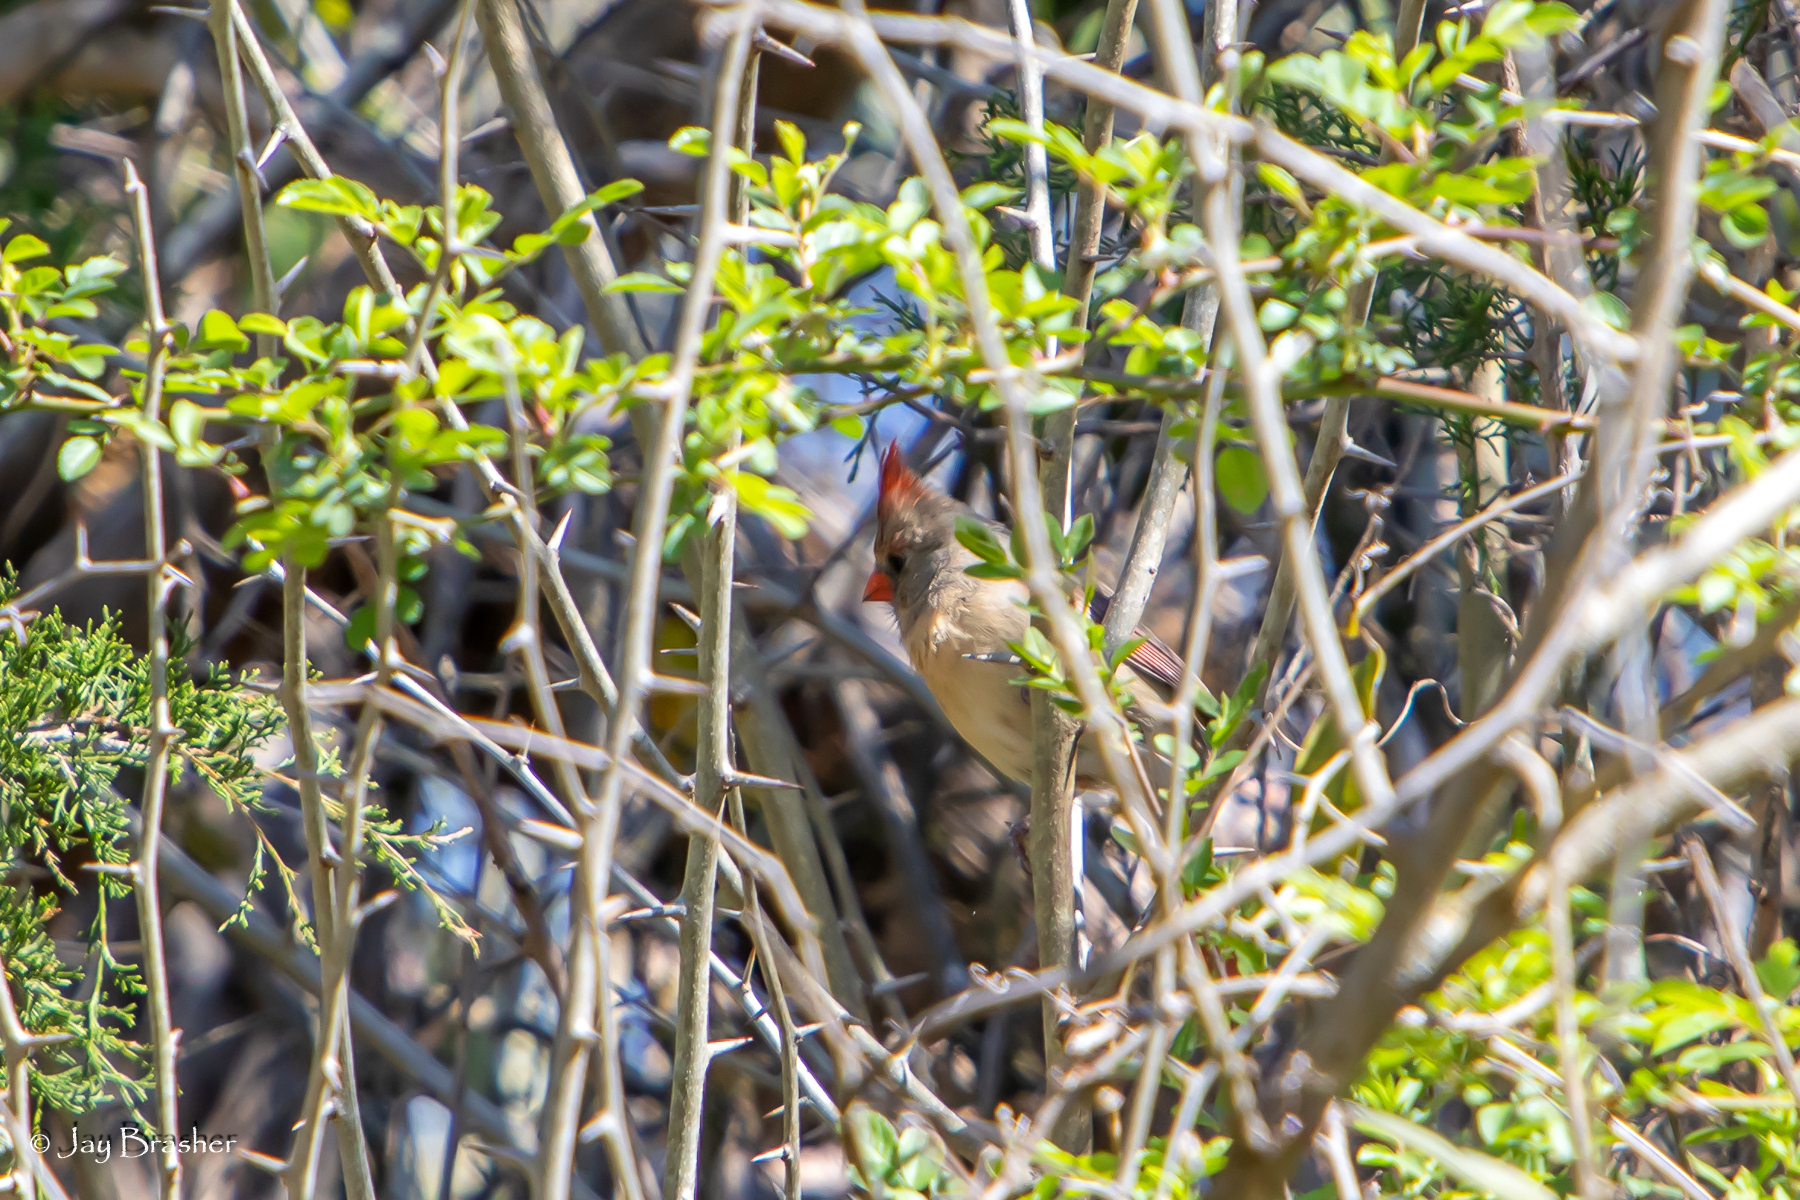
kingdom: Animalia
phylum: Chordata
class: Aves
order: Passeriformes
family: Cardinalidae
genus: Cardinalis
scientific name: Cardinalis cardinalis
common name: Northern cardinal
